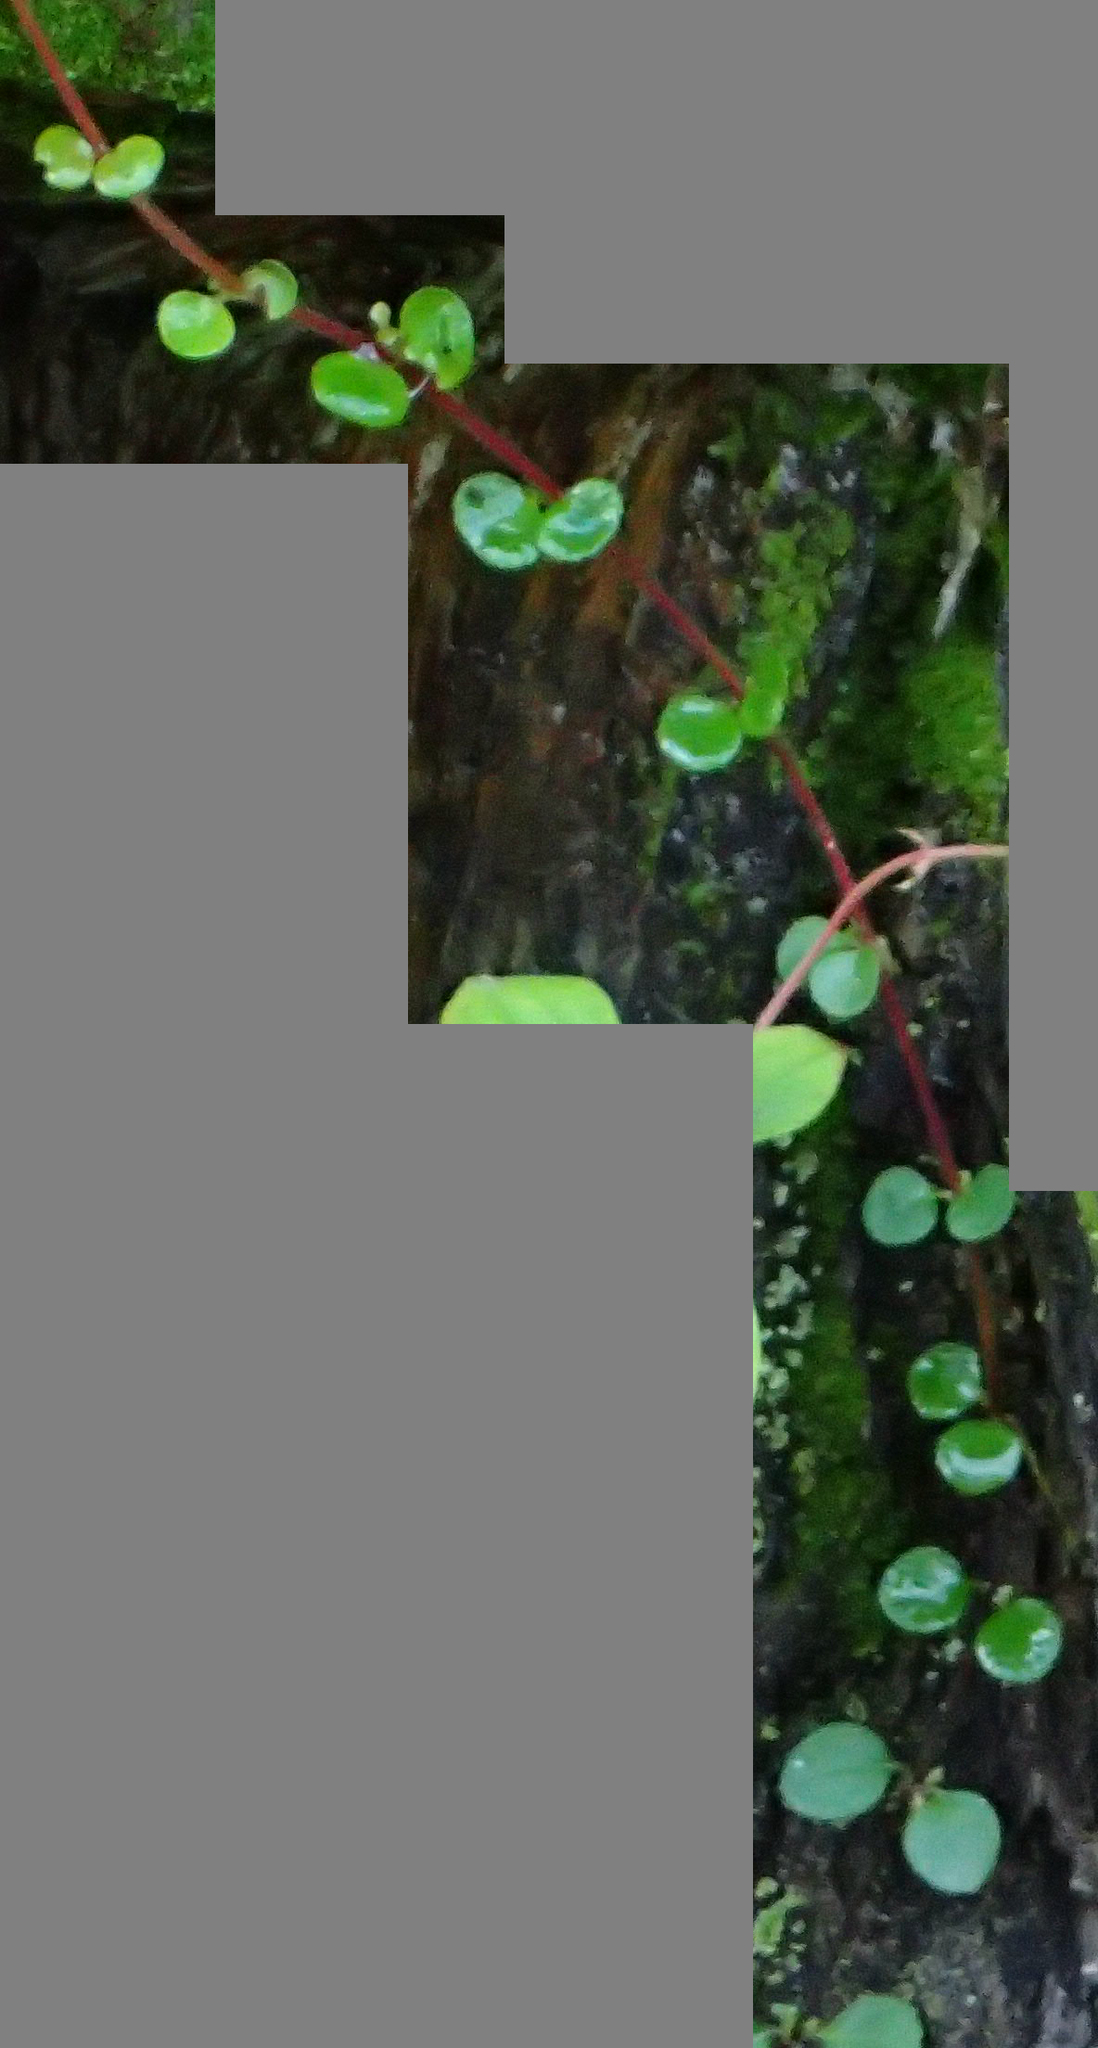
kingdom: Plantae
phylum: Tracheophyta
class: Magnoliopsida
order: Dipsacales
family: Caprifoliaceae
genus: Linnaea
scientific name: Linnaea borealis
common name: Twinflower
